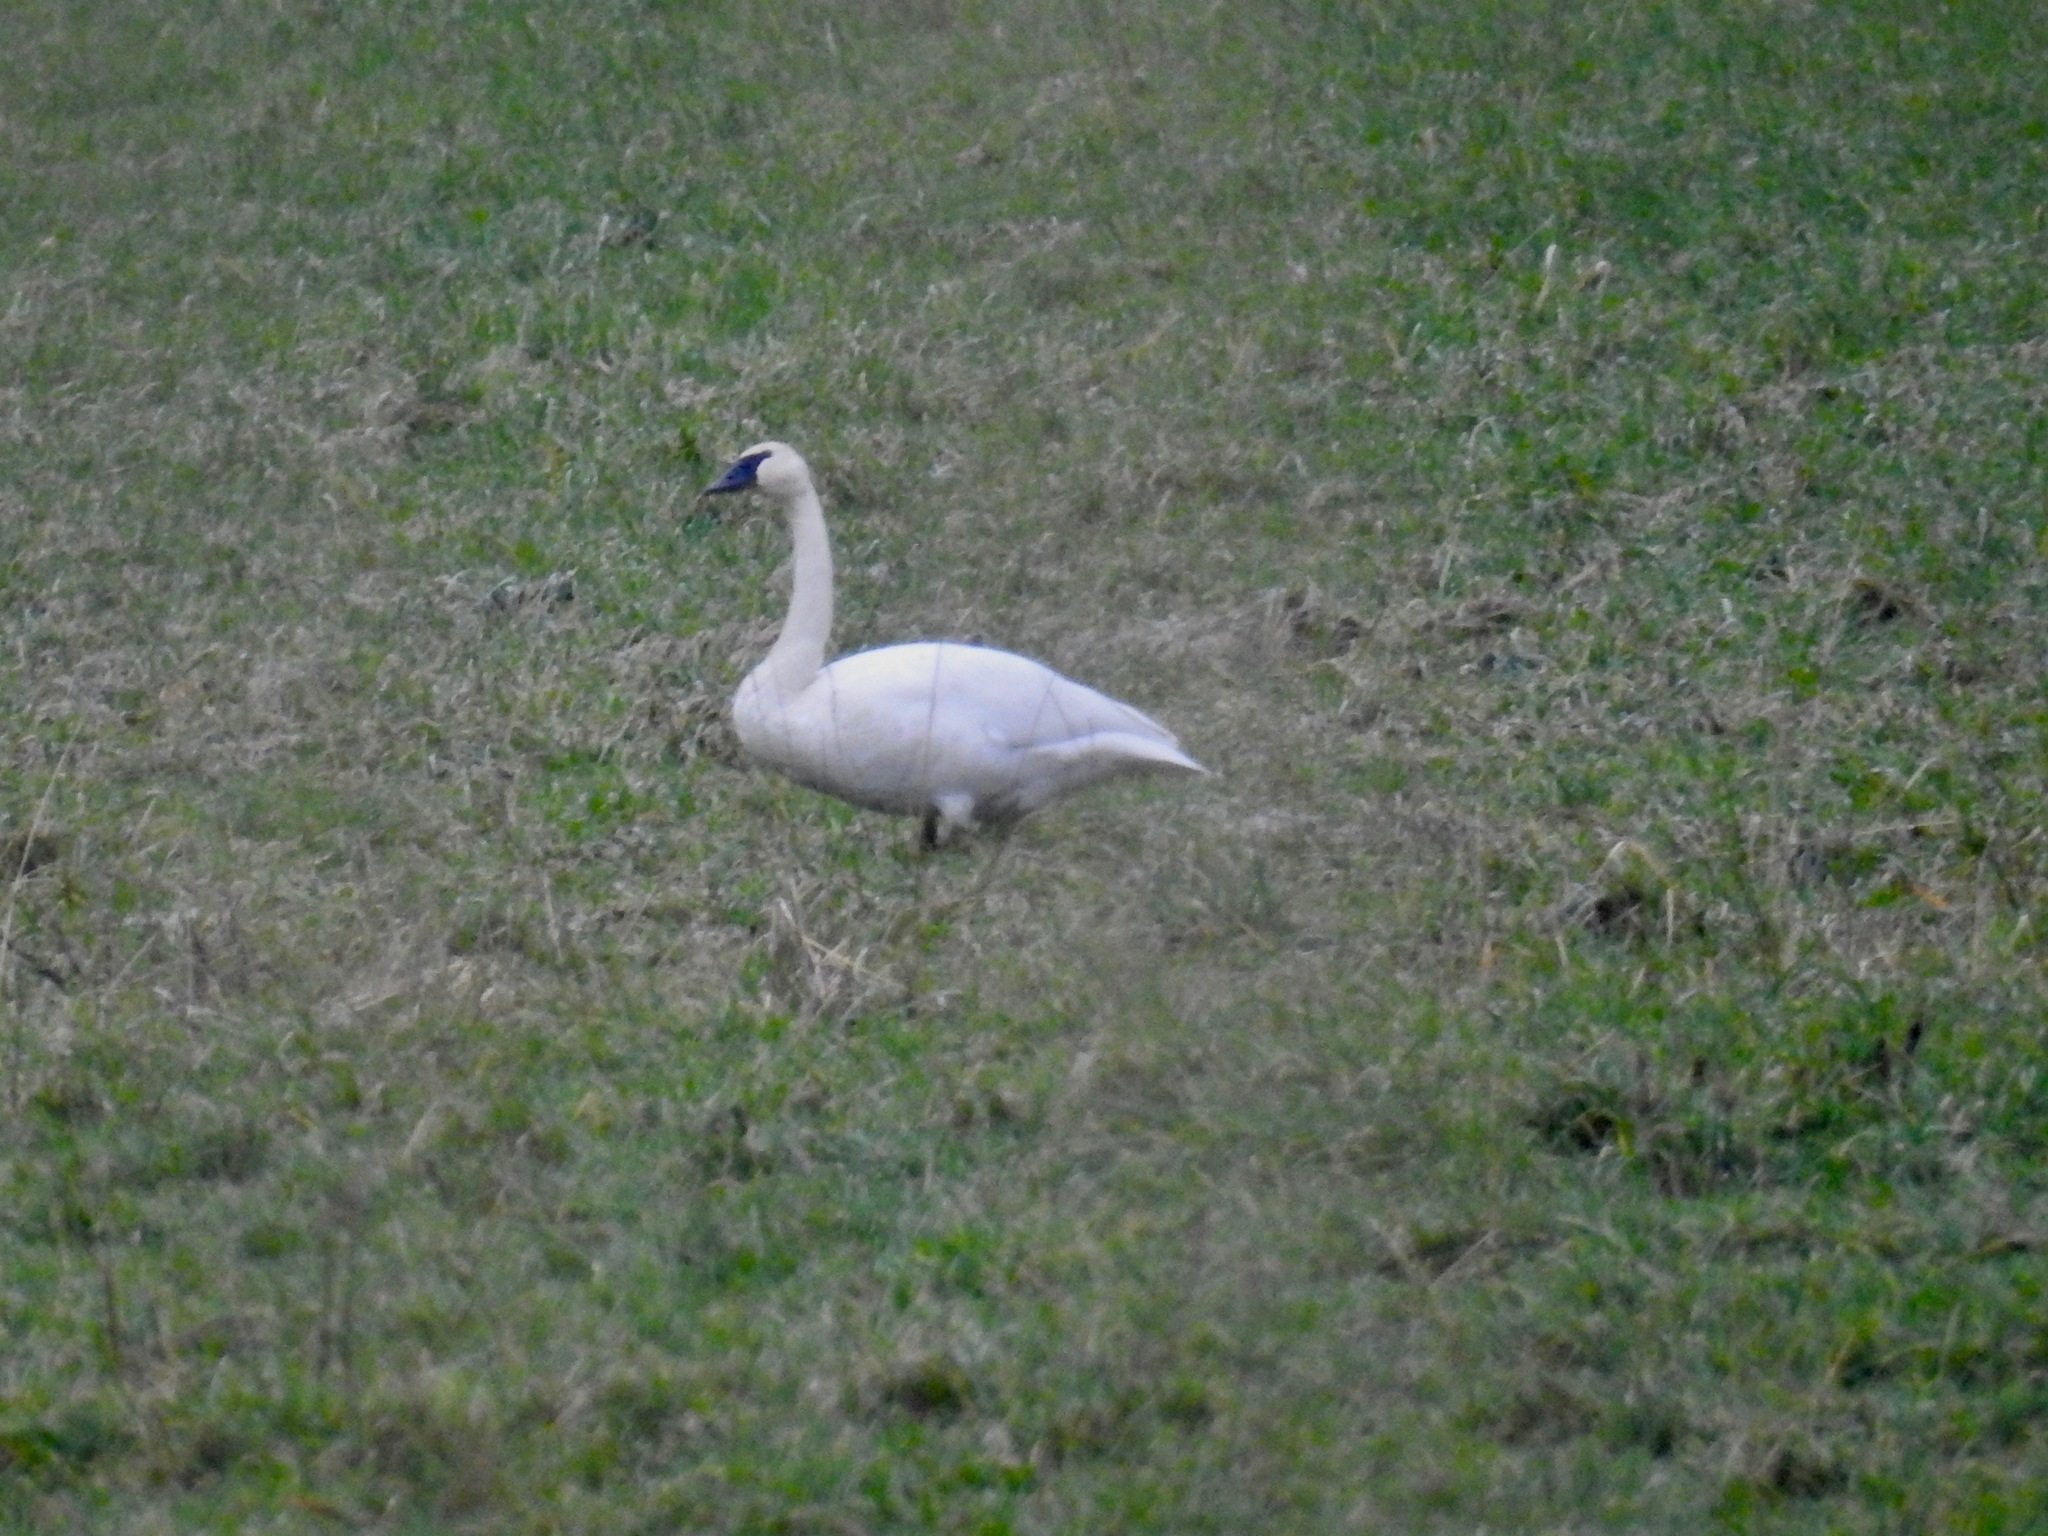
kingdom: Animalia
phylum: Chordata
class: Aves
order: Anseriformes
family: Anatidae
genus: Cygnus
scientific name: Cygnus buccinator
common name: Trumpeter swan
